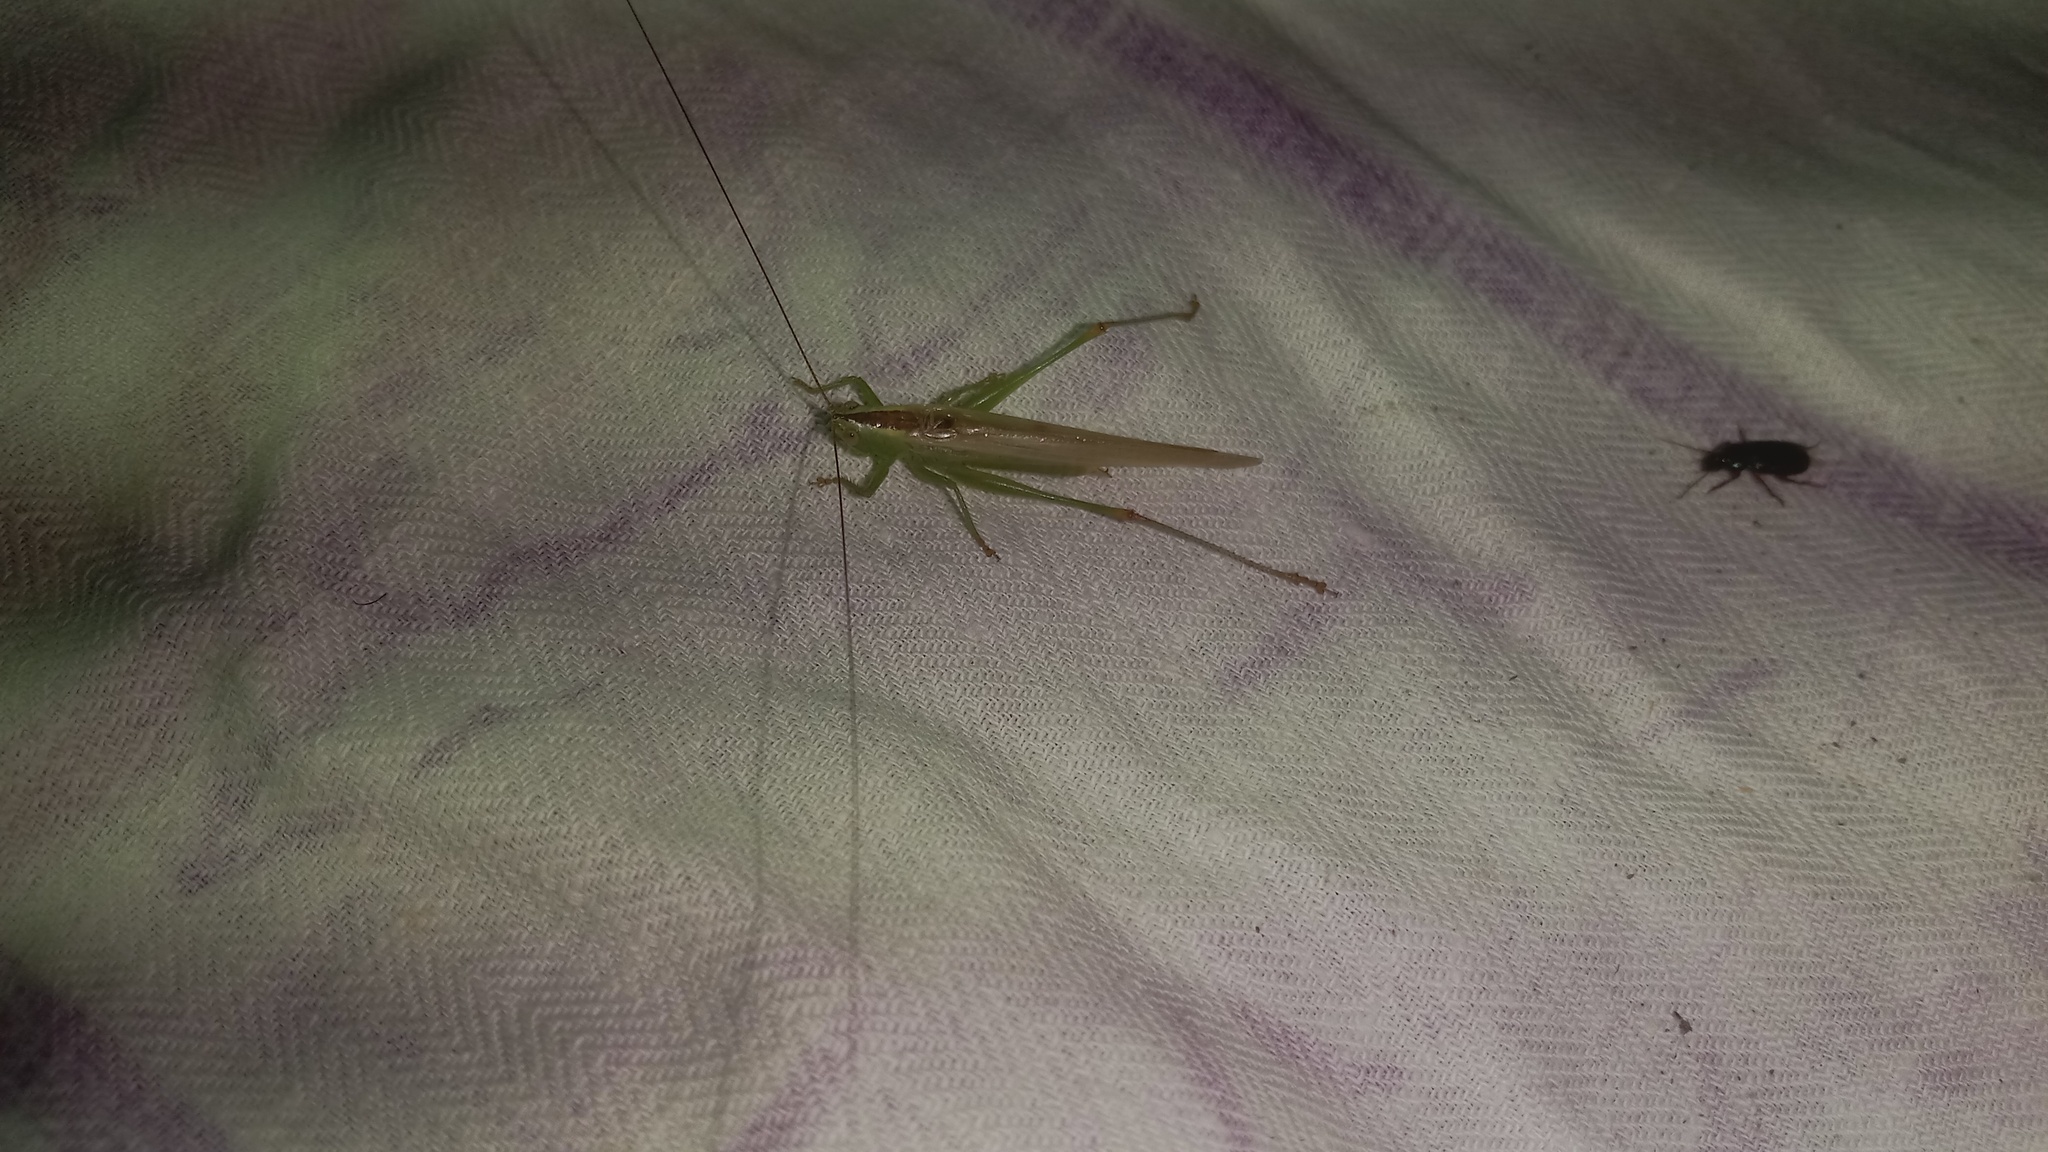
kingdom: Animalia
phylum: Arthropoda
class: Insecta
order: Orthoptera
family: Tettigoniidae
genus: Conocephalus
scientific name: Conocephalus fuscus
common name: Long-winged conehead
